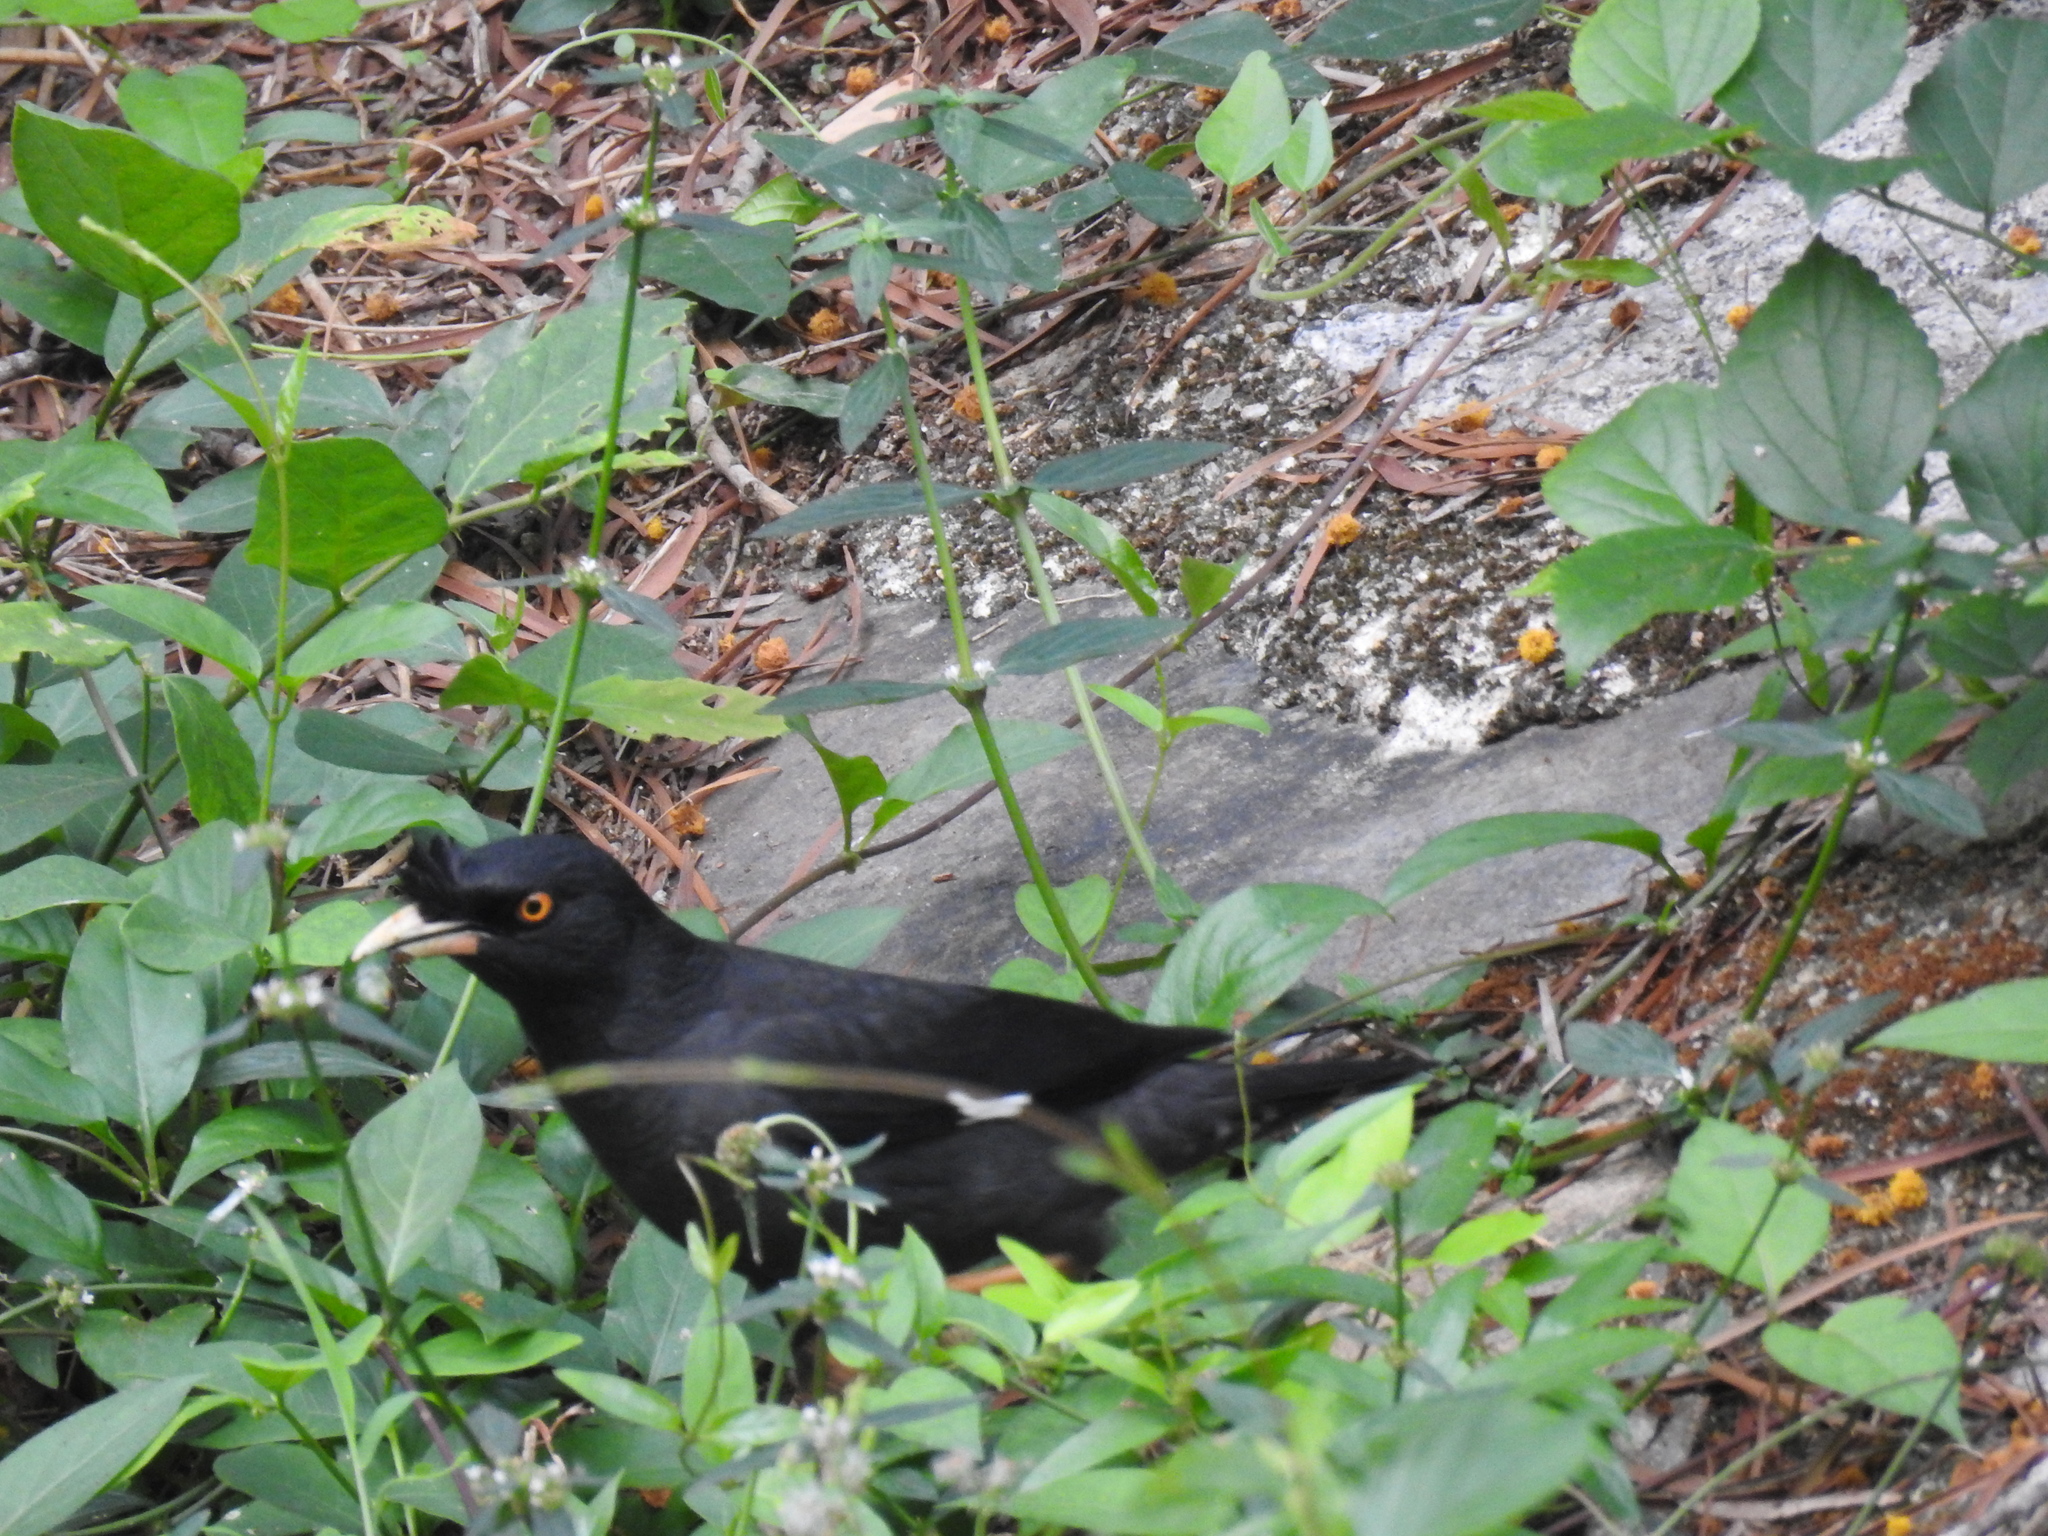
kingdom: Animalia
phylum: Chordata
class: Aves
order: Passeriformes
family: Sturnidae
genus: Acridotheres
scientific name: Acridotheres cristatellus
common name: Crested myna
